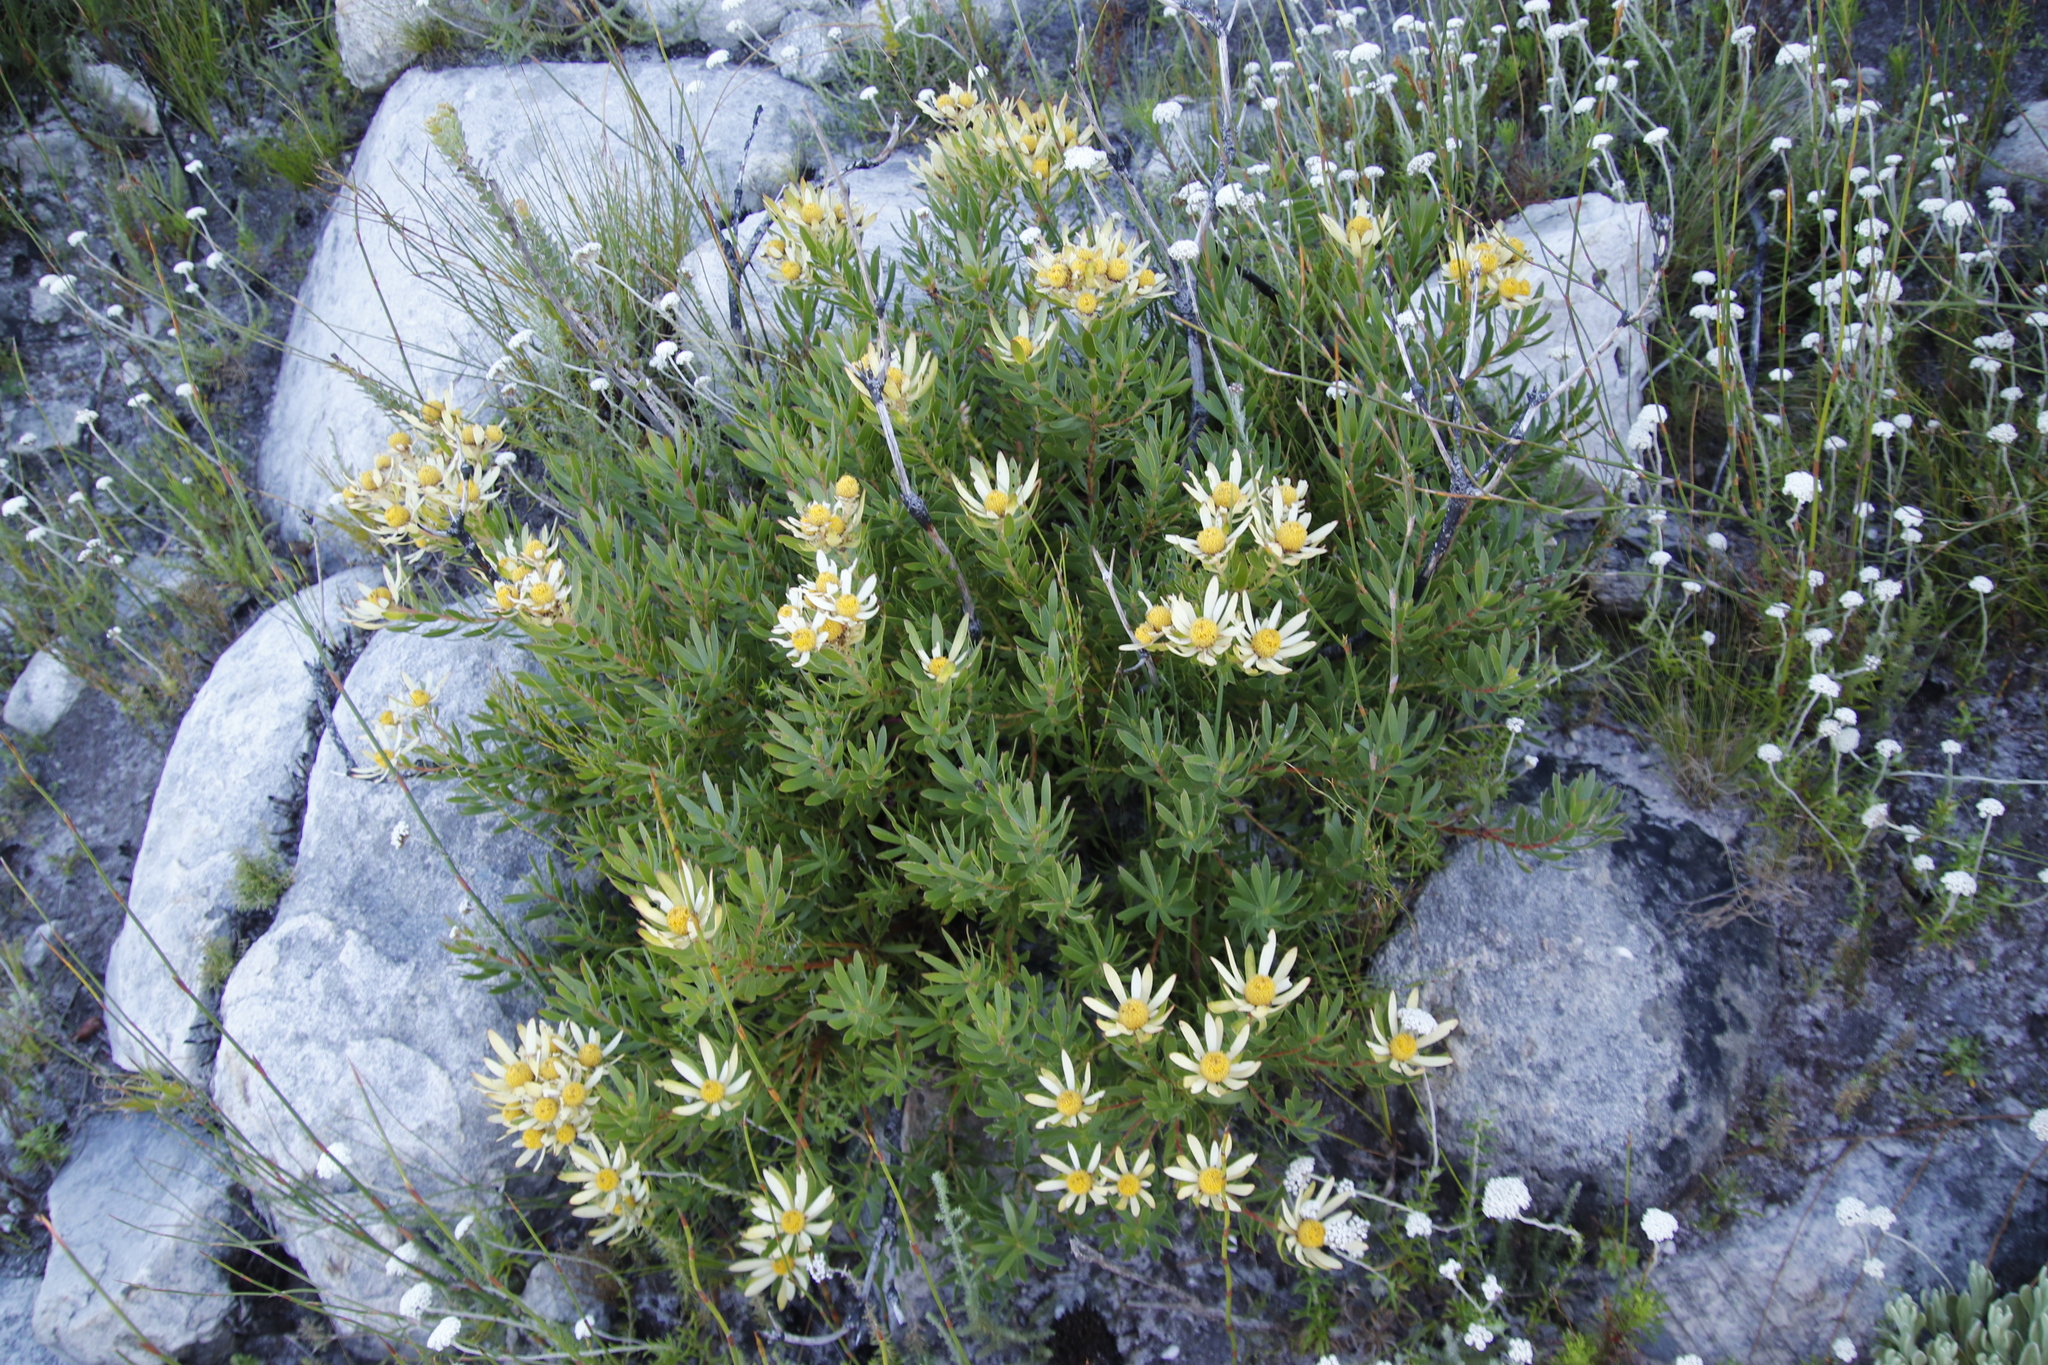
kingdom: Plantae
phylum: Tracheophyta
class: Magnoliopsida
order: Proteales
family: Proteaceae
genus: Leucadendron
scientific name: Leucadendron spissifolium
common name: Spear-leaf conebush
